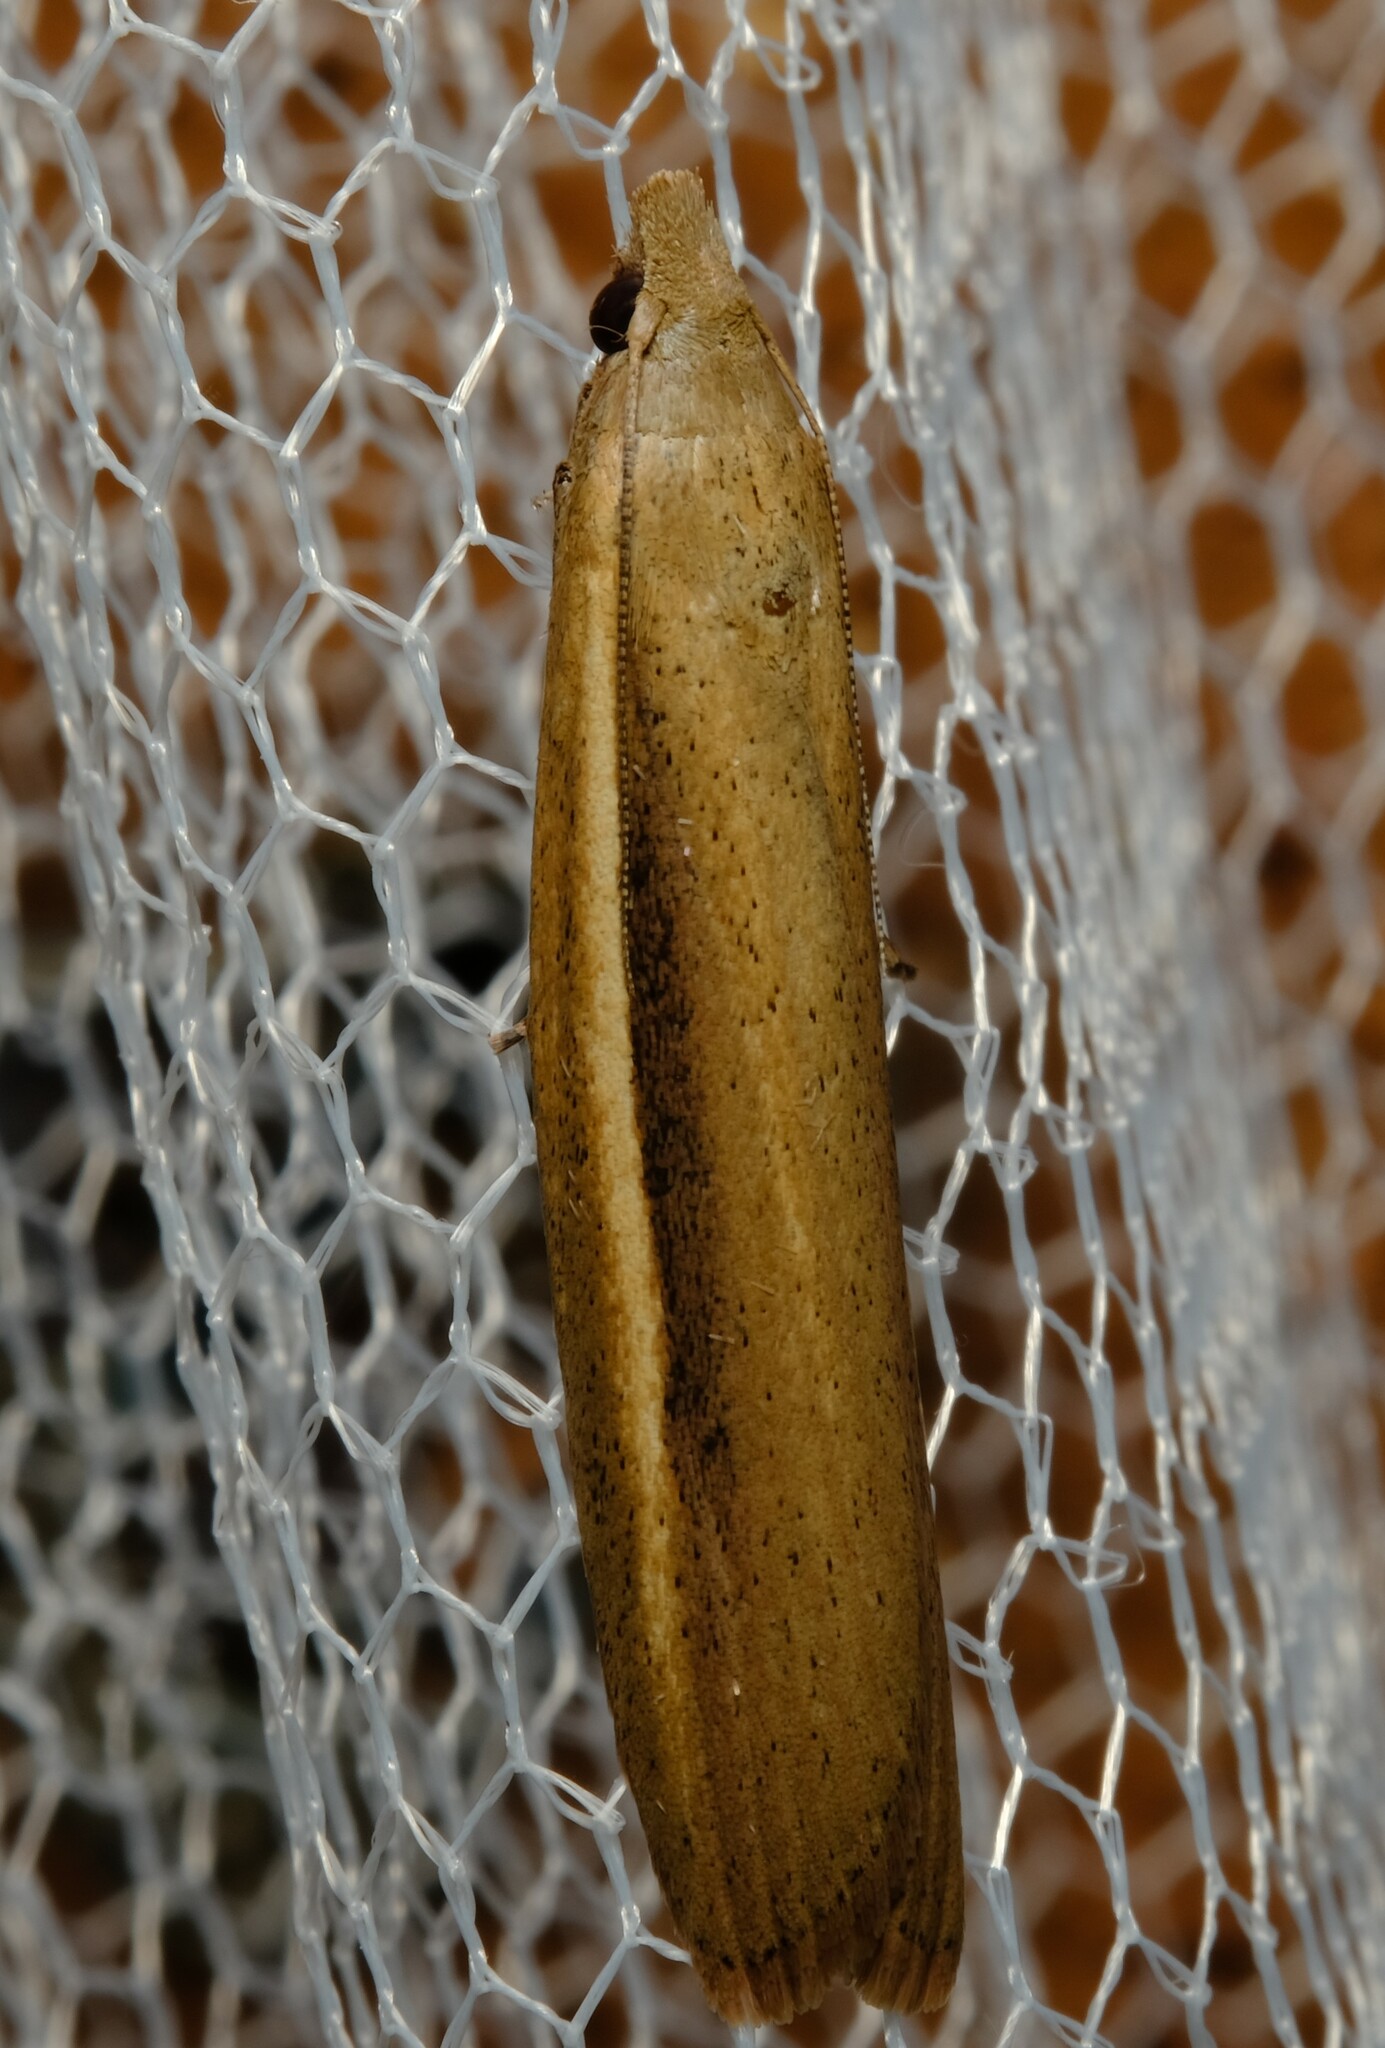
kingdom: Animalia
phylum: Arthropoda
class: Insecta
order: Lepidoptera
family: Pyralidae
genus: Meyriccia
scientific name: Meyriccia latro
